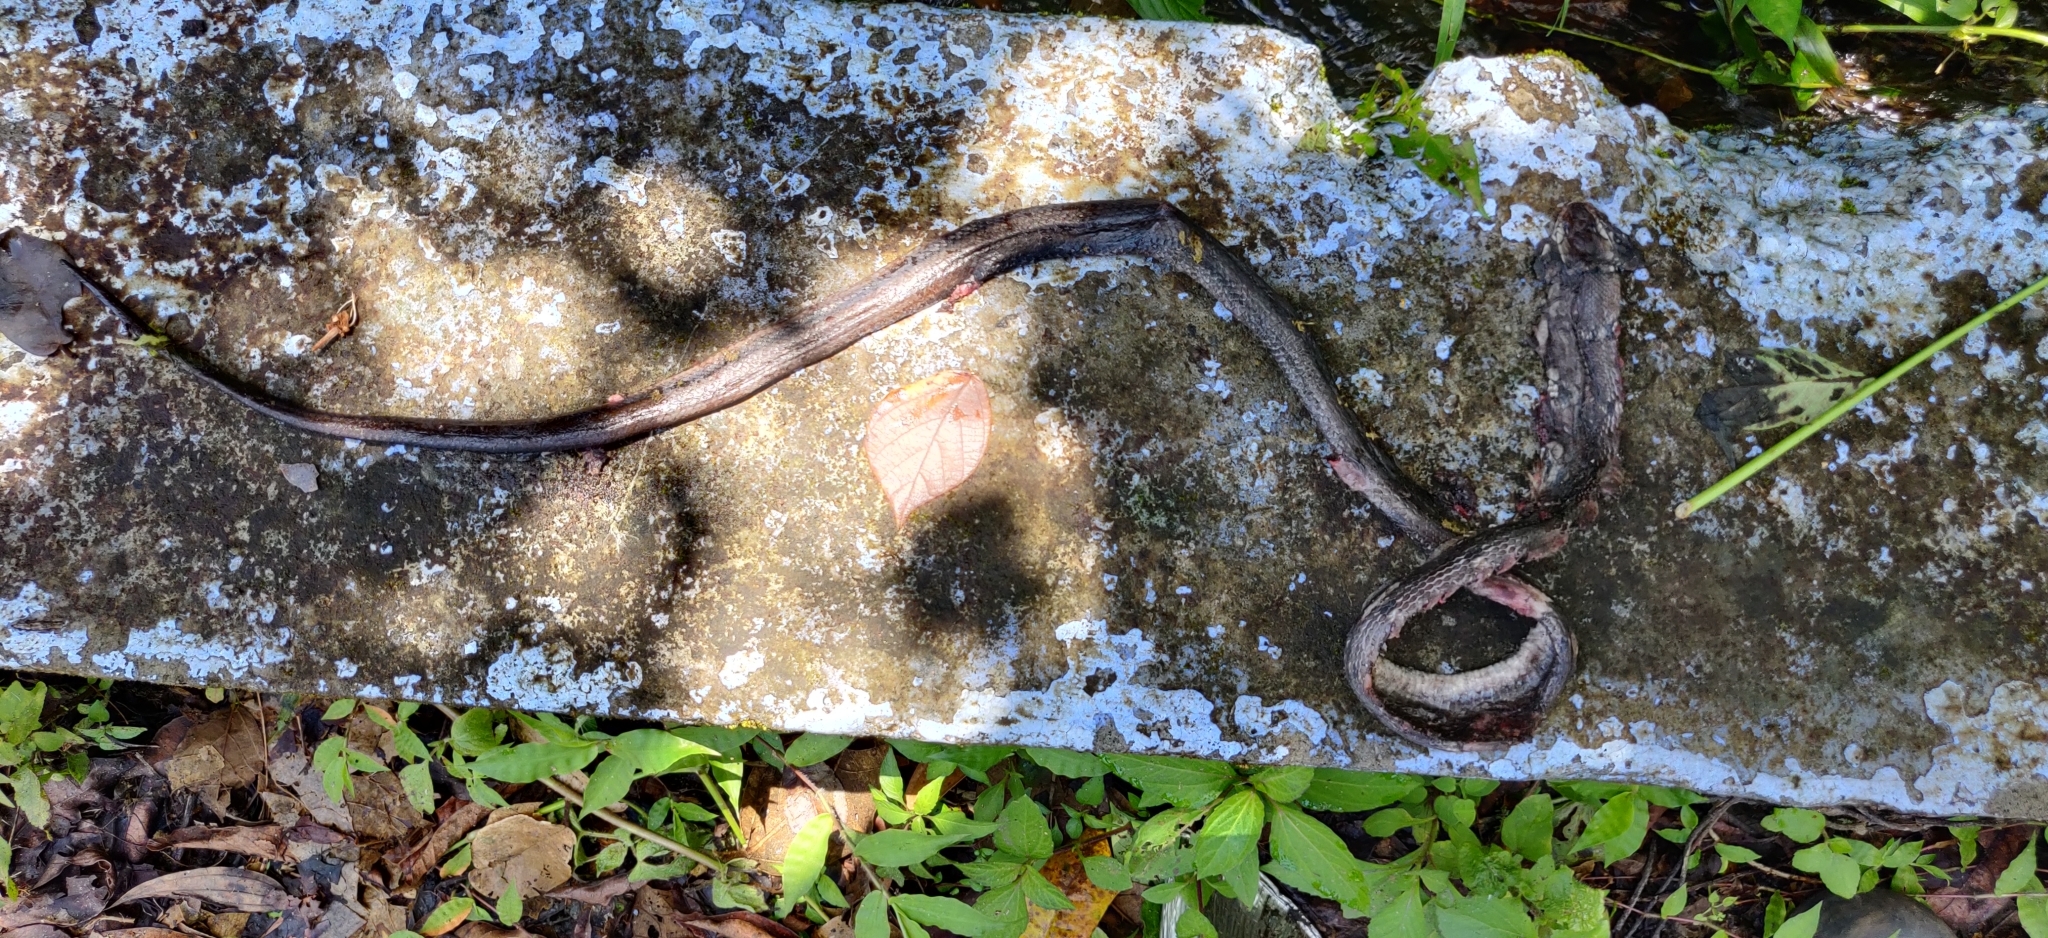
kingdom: Animalia
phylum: Chordata
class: Squamata
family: Colubridae
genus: Coelognathus
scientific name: Coelognathus helena
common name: Trinket snake
